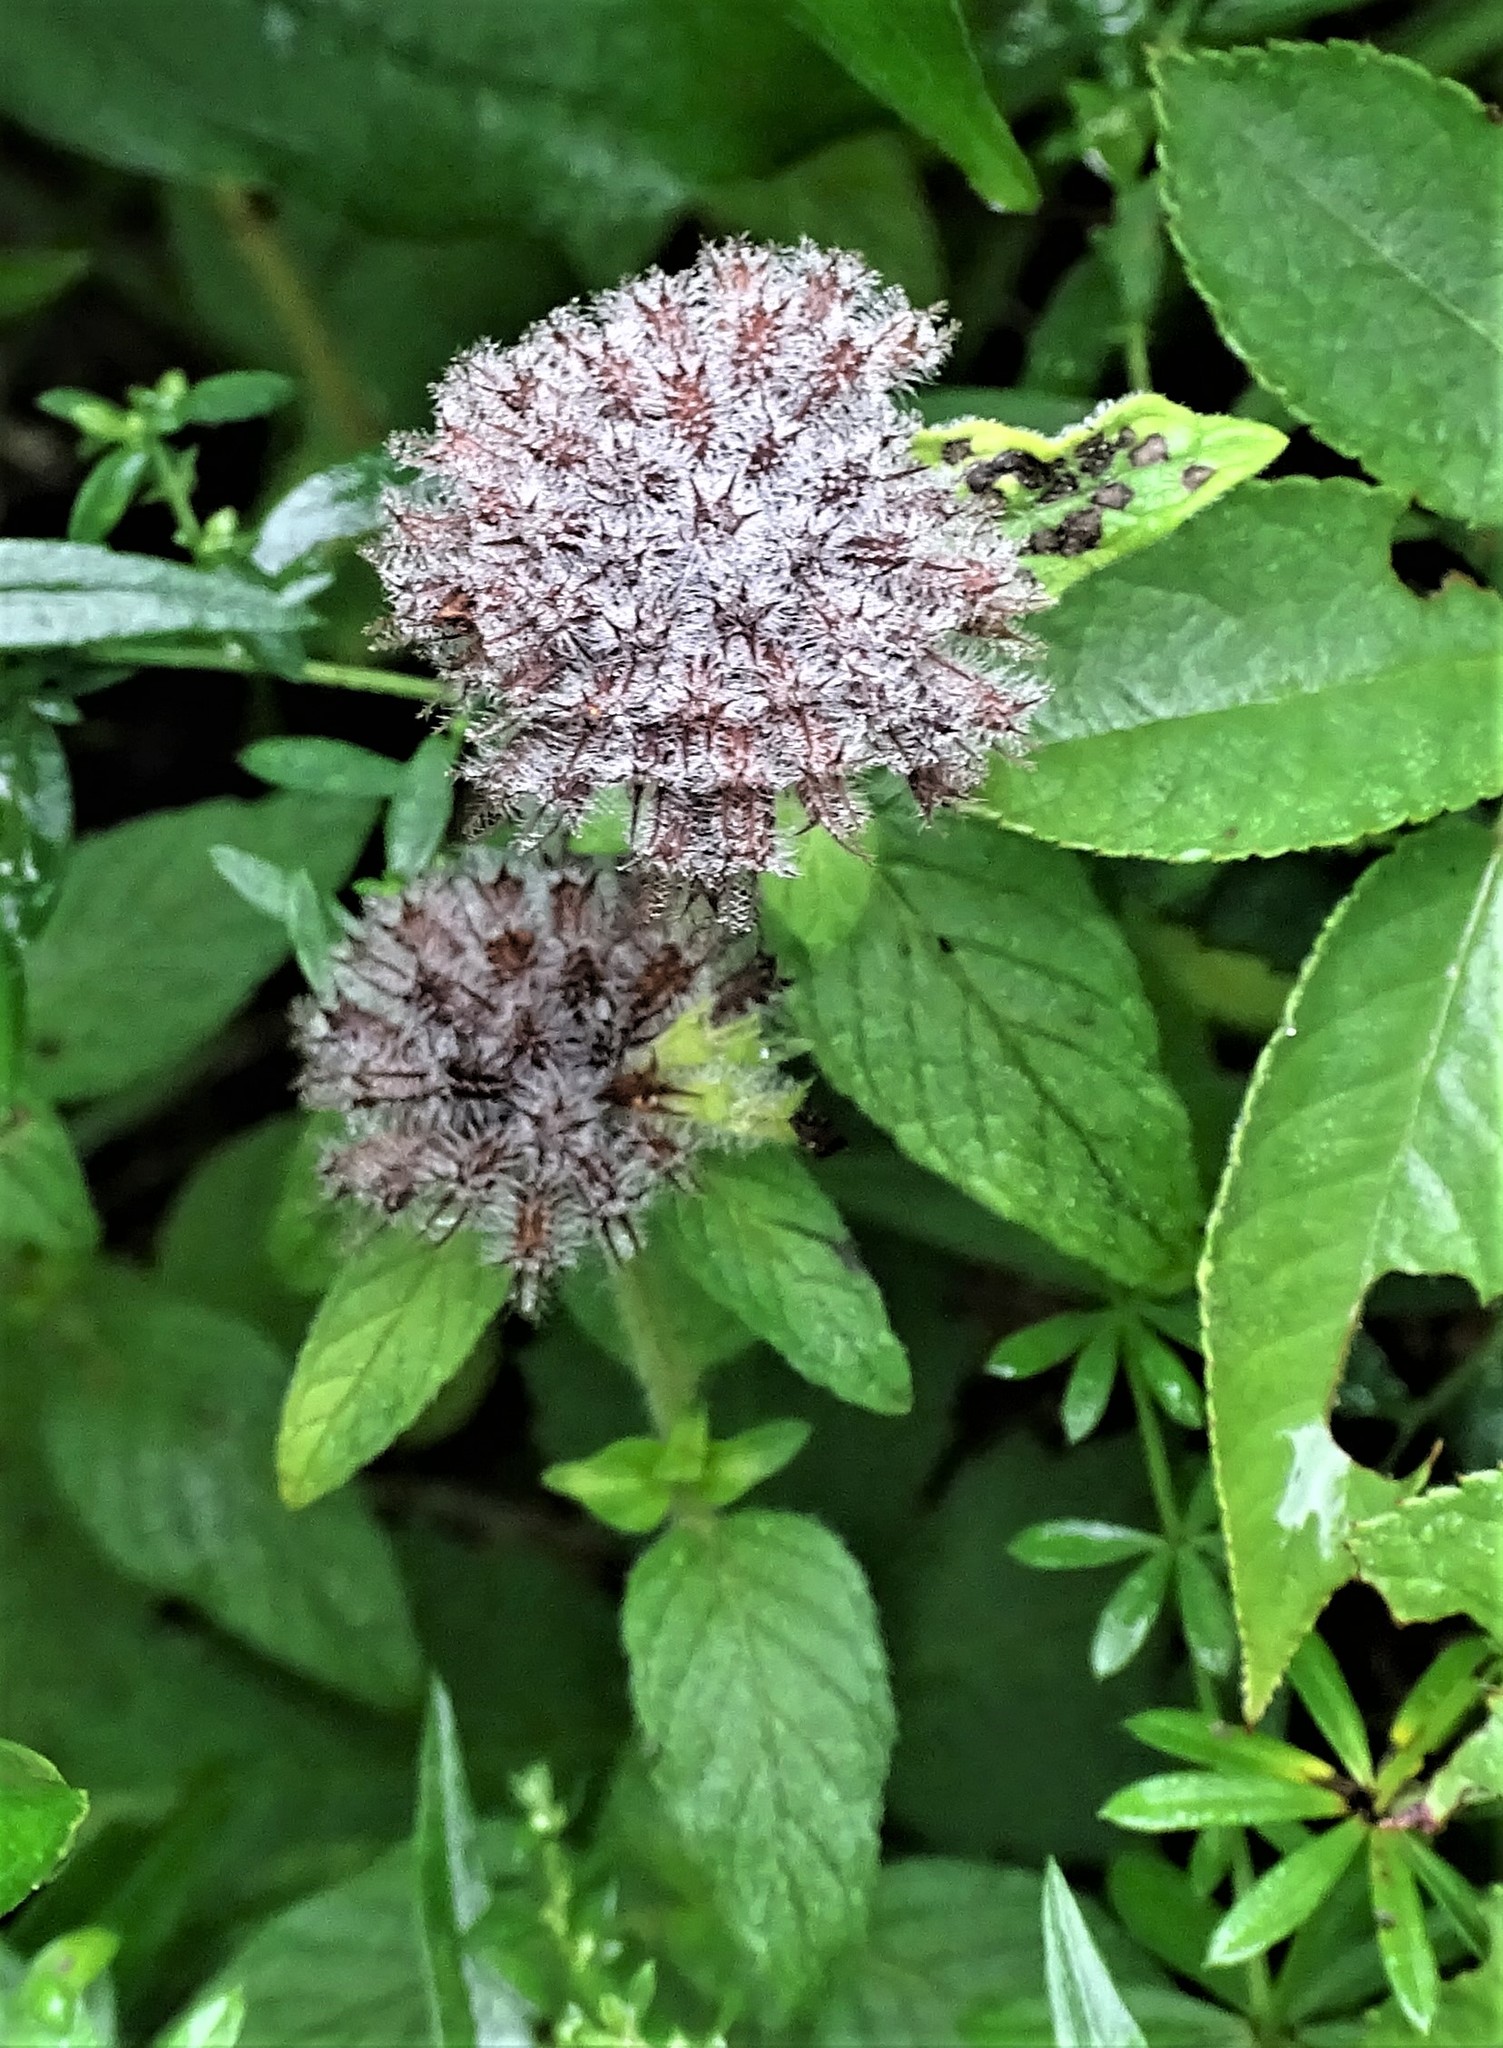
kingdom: Plantae
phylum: Tracheophyta
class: Magnoliopsida
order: Lamiales
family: Lamiaceae
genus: Clinopodium
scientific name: Clinopodium vulgare
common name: Wild basil
